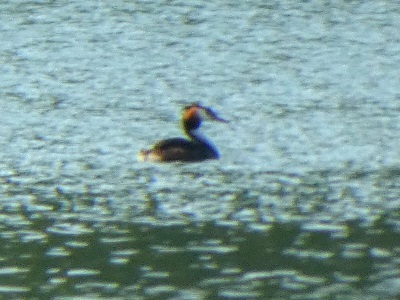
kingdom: Animalia
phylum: Chordata
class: Aves
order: Podicipediformes
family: Podicipedidae
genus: Podiceps
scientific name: Podiceps cristatus
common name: Great crested grebe
